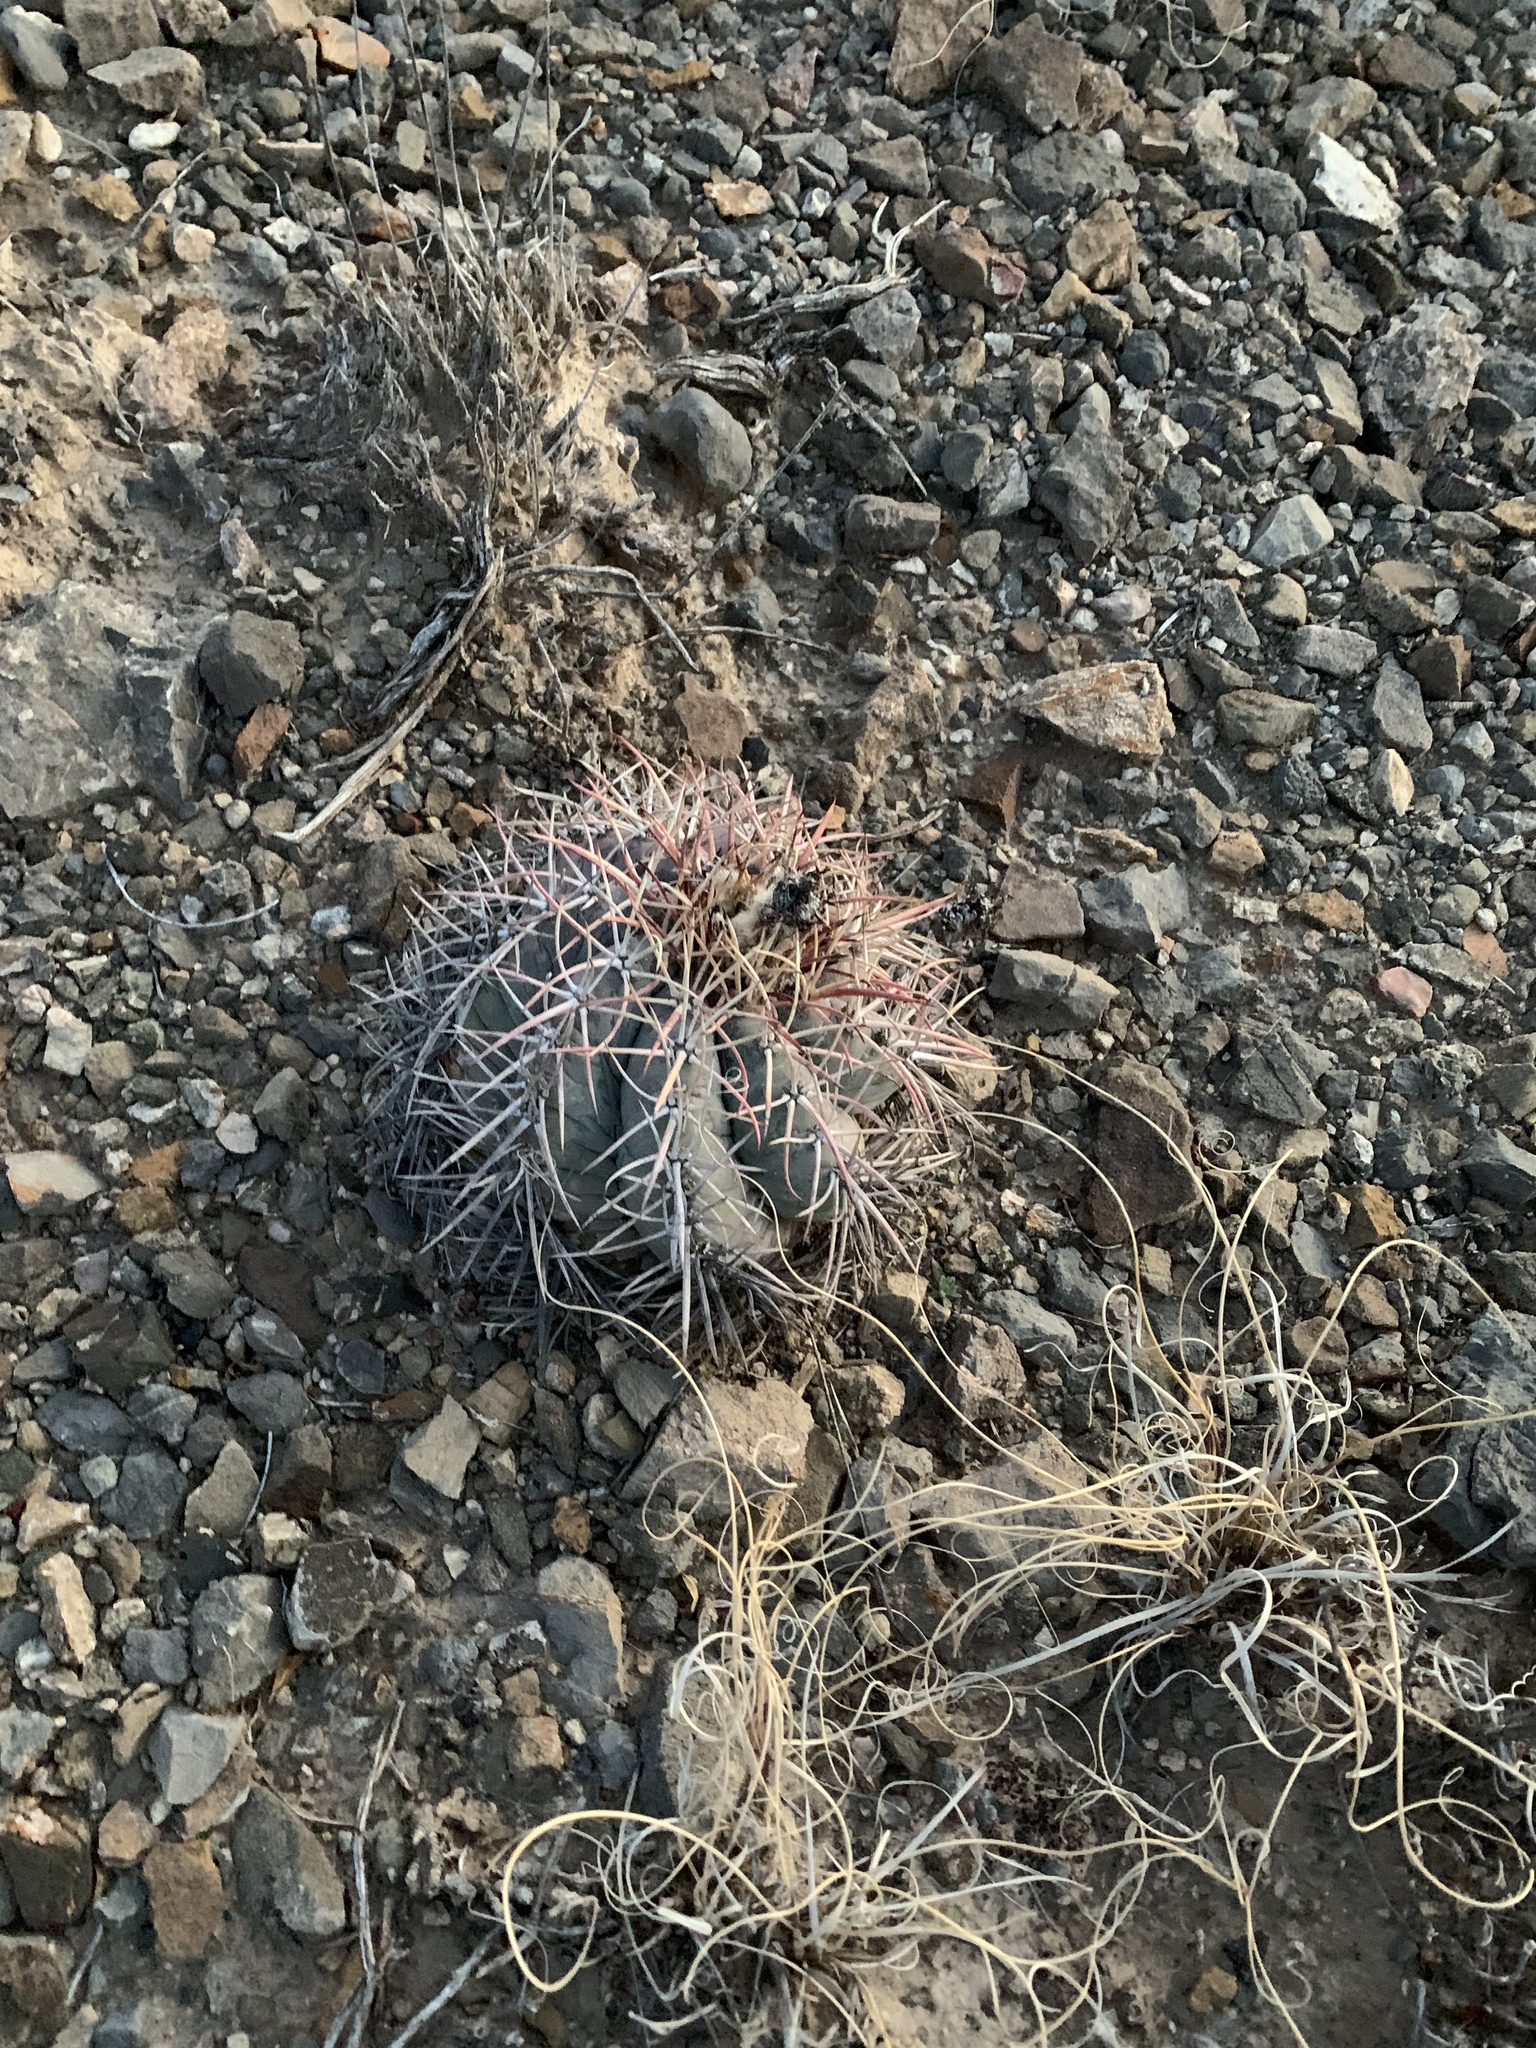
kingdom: Plantae
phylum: Tracheophyta
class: Magnoliopsida
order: Caryophyllales
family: Cactaceae
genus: Echinocactus
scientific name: Echinocactus horizonthalonius
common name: Devilshead
